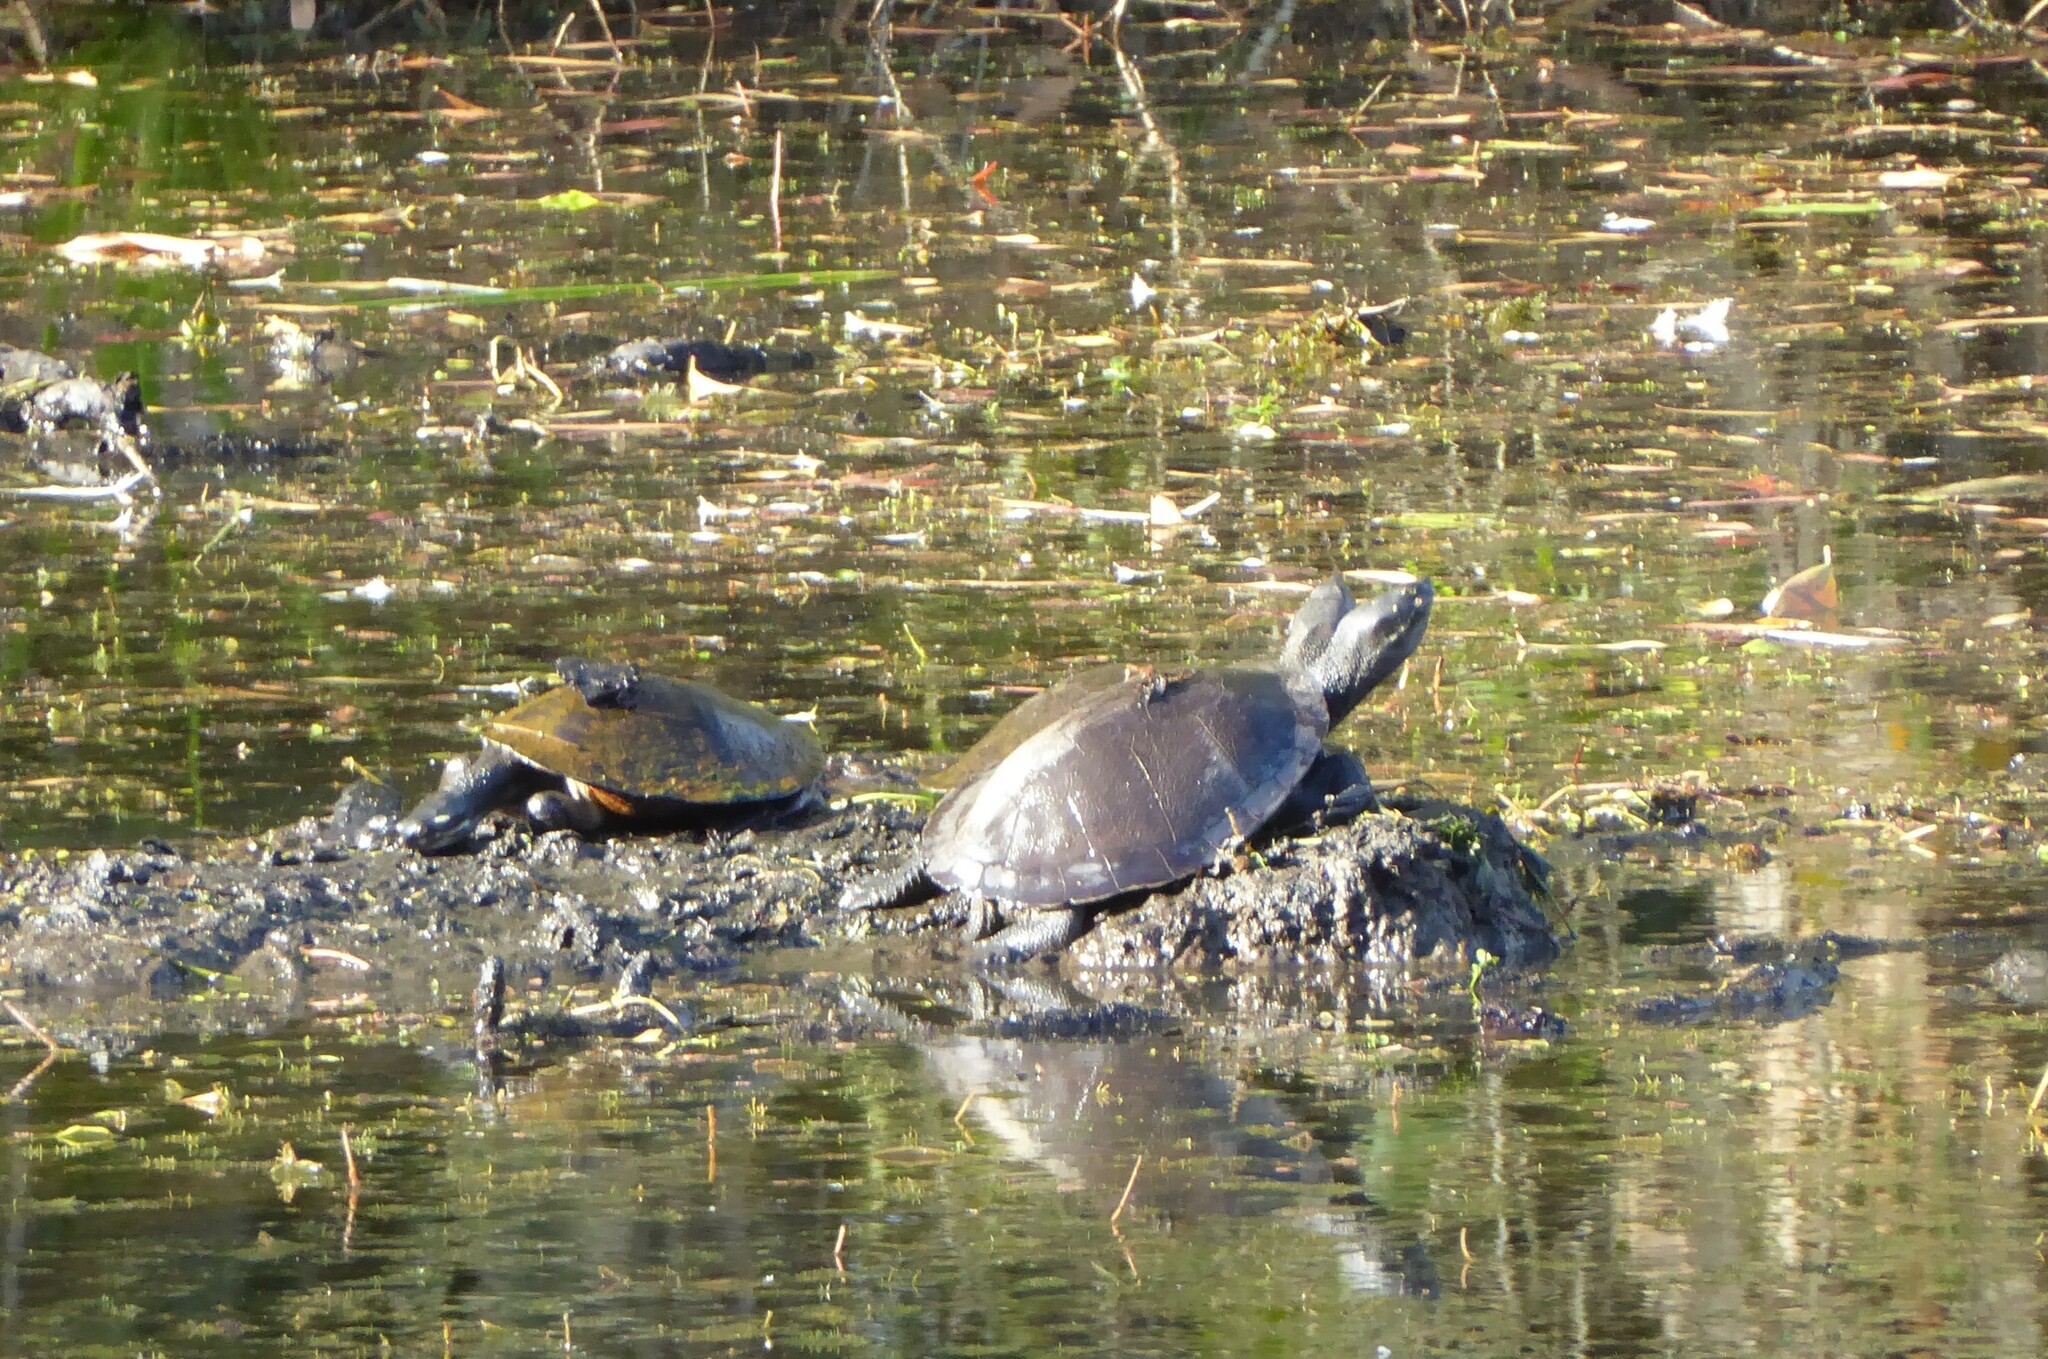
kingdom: Animalia
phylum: Chordata
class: Testudines
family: Chelidae
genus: Emydura
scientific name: Emydura macquarii
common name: Murray river turtle
